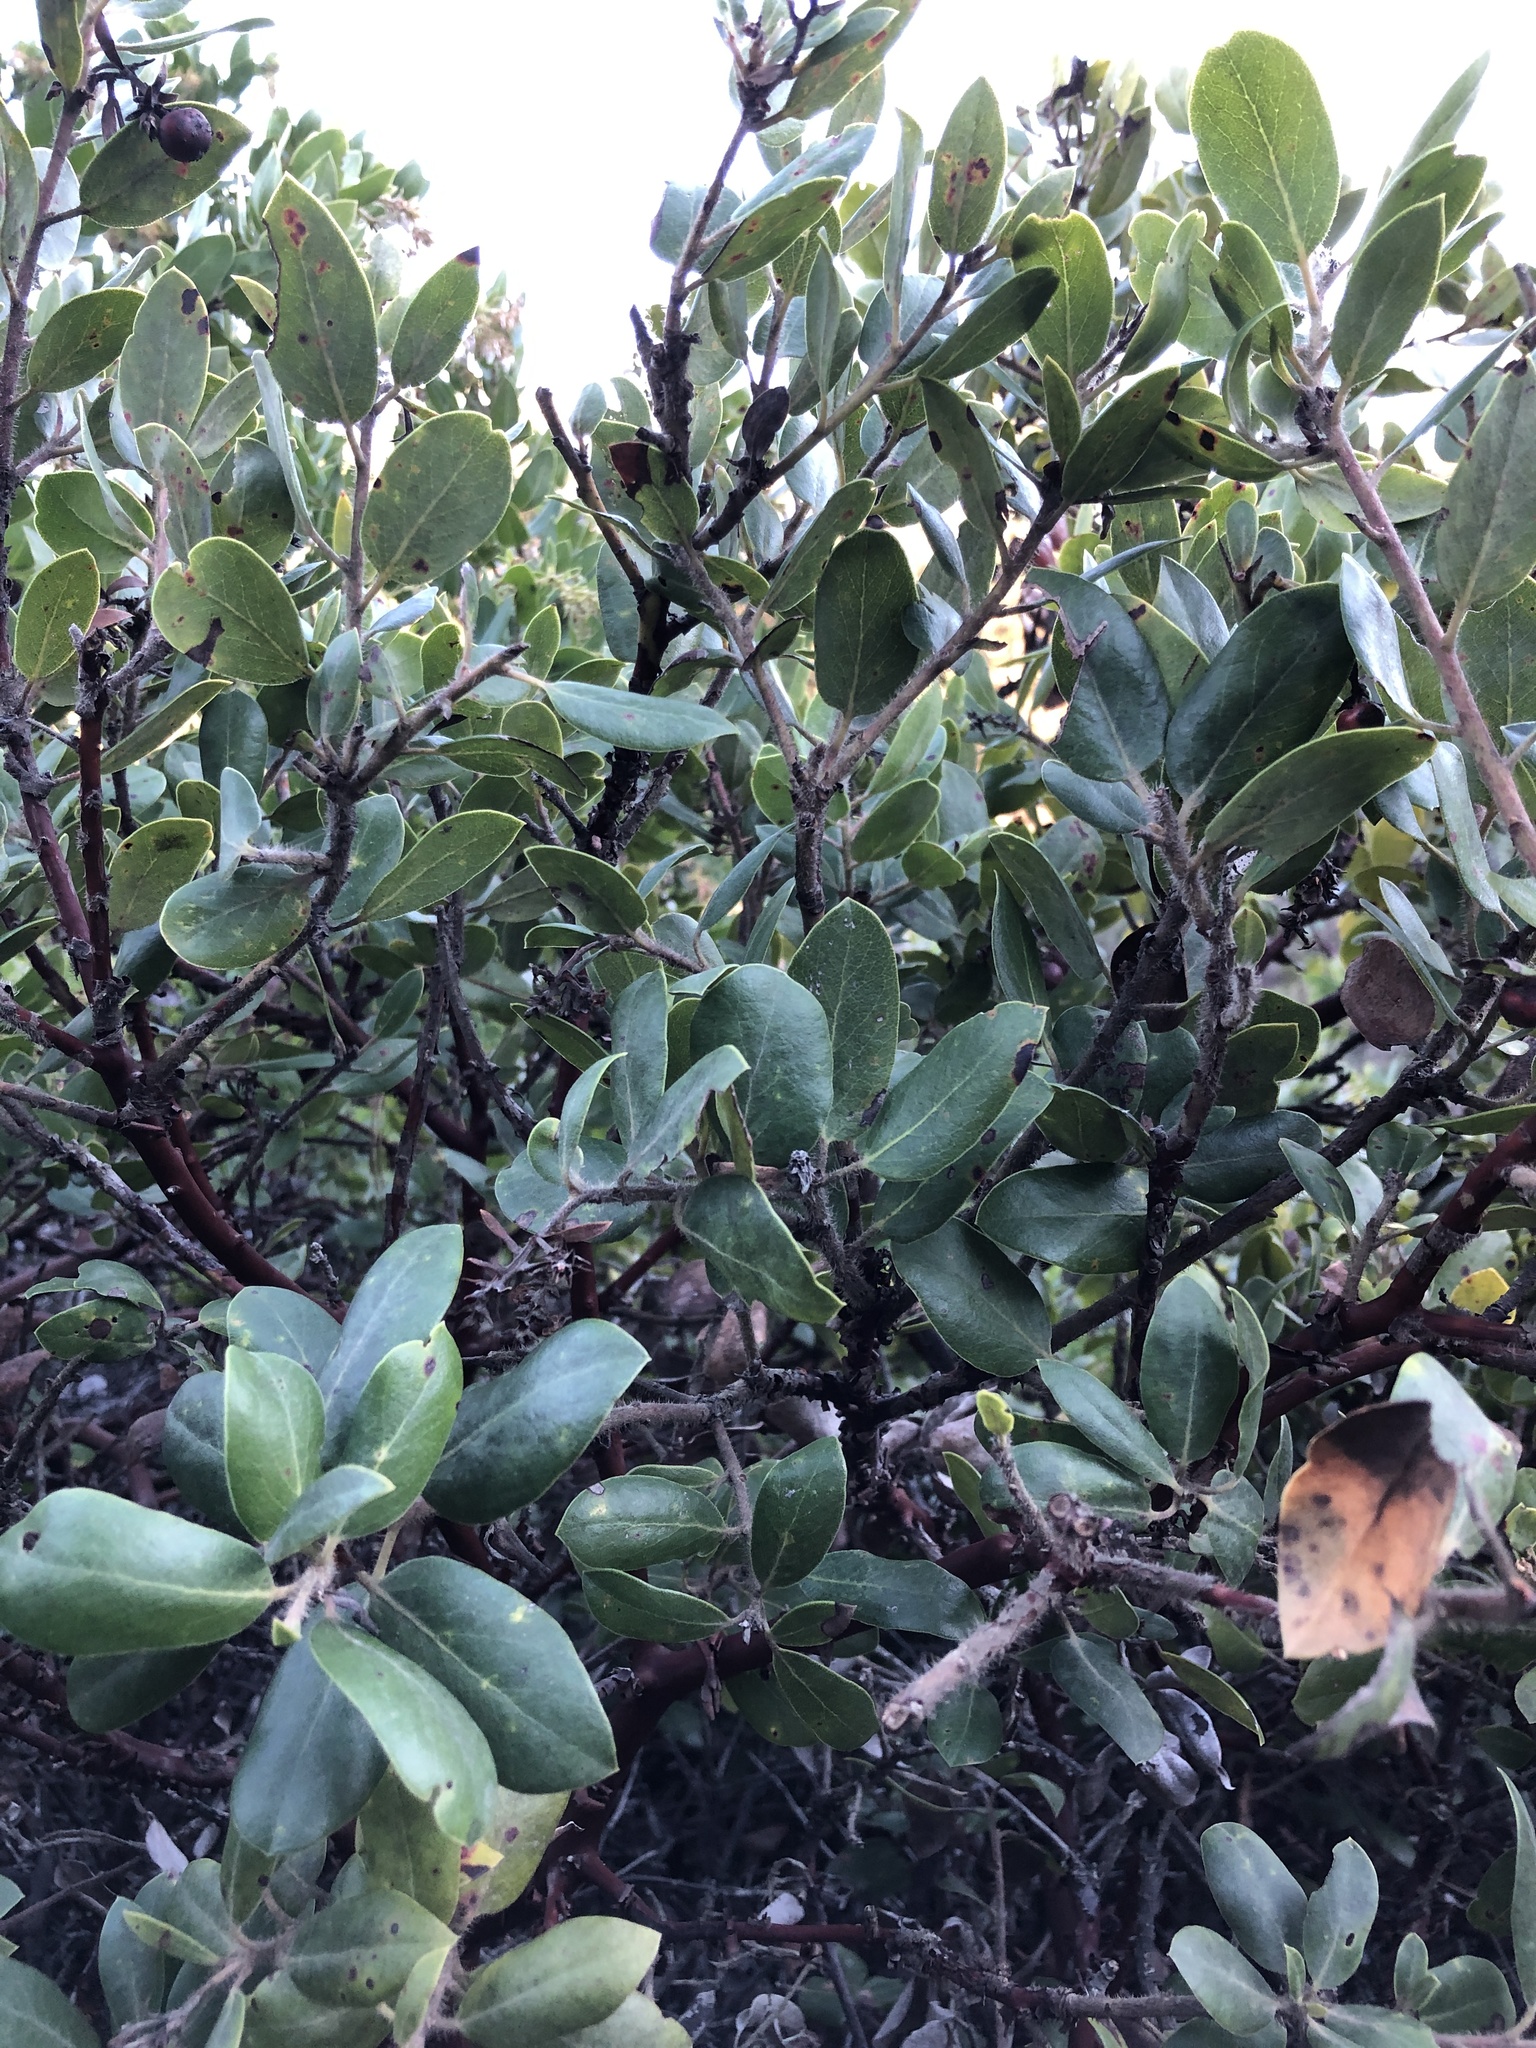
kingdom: Plantae
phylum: Tracheophyta
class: Magnoliopsida
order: Ericales
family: Ericaceae
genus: Arctostaphylos
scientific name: Arctostaphylos crustacea
